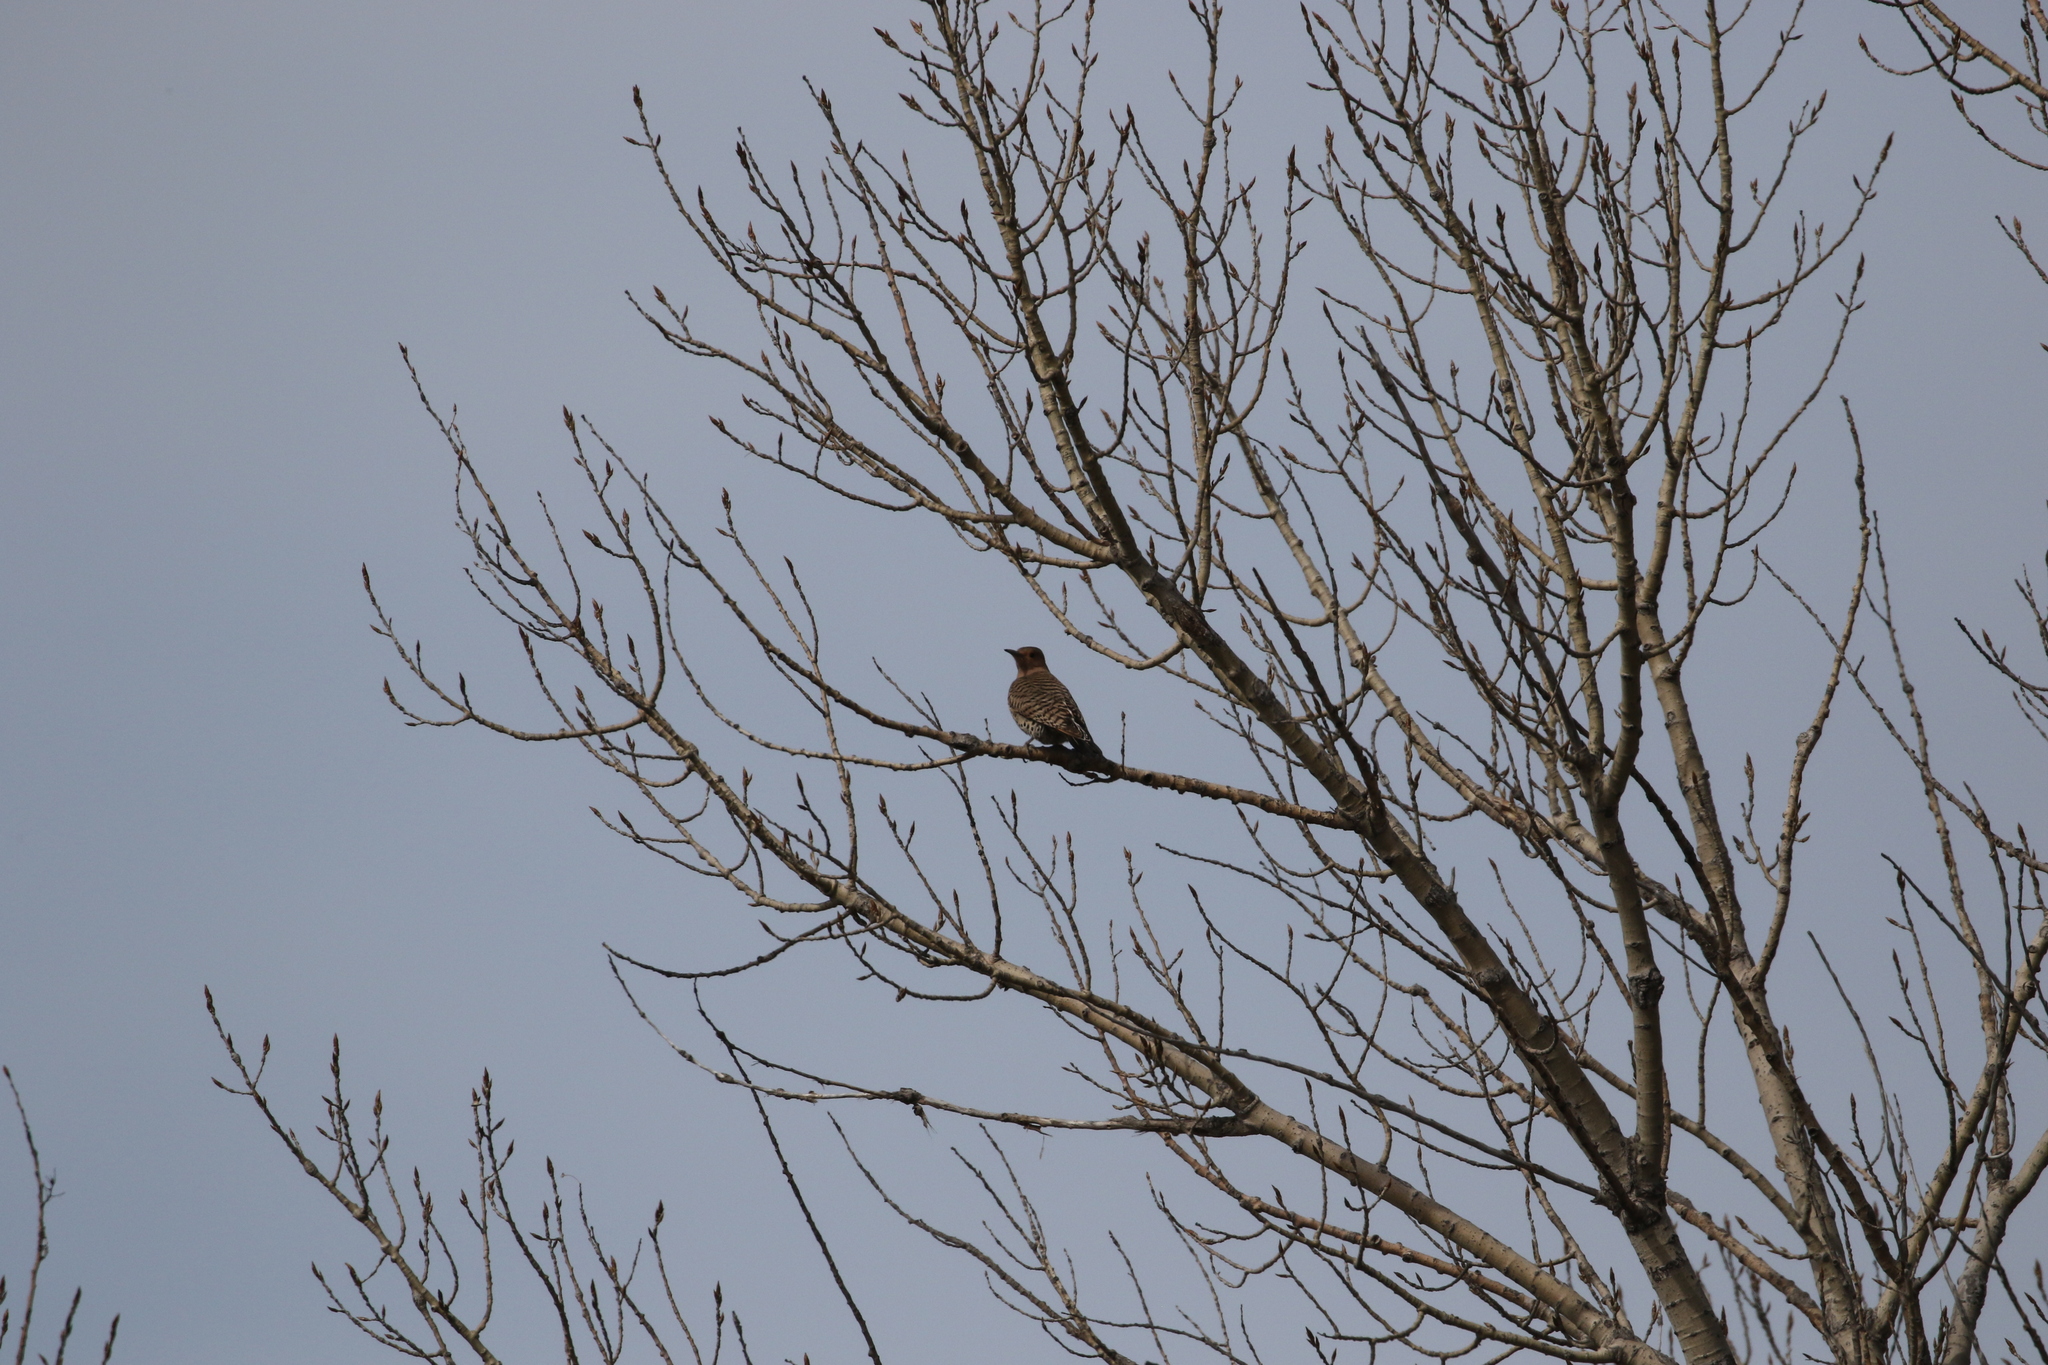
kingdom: Animalia
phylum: Chordata
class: Aves
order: Piciformes
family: Picidae
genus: Colaptes
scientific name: Colaptes auratus
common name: Northern flicker
